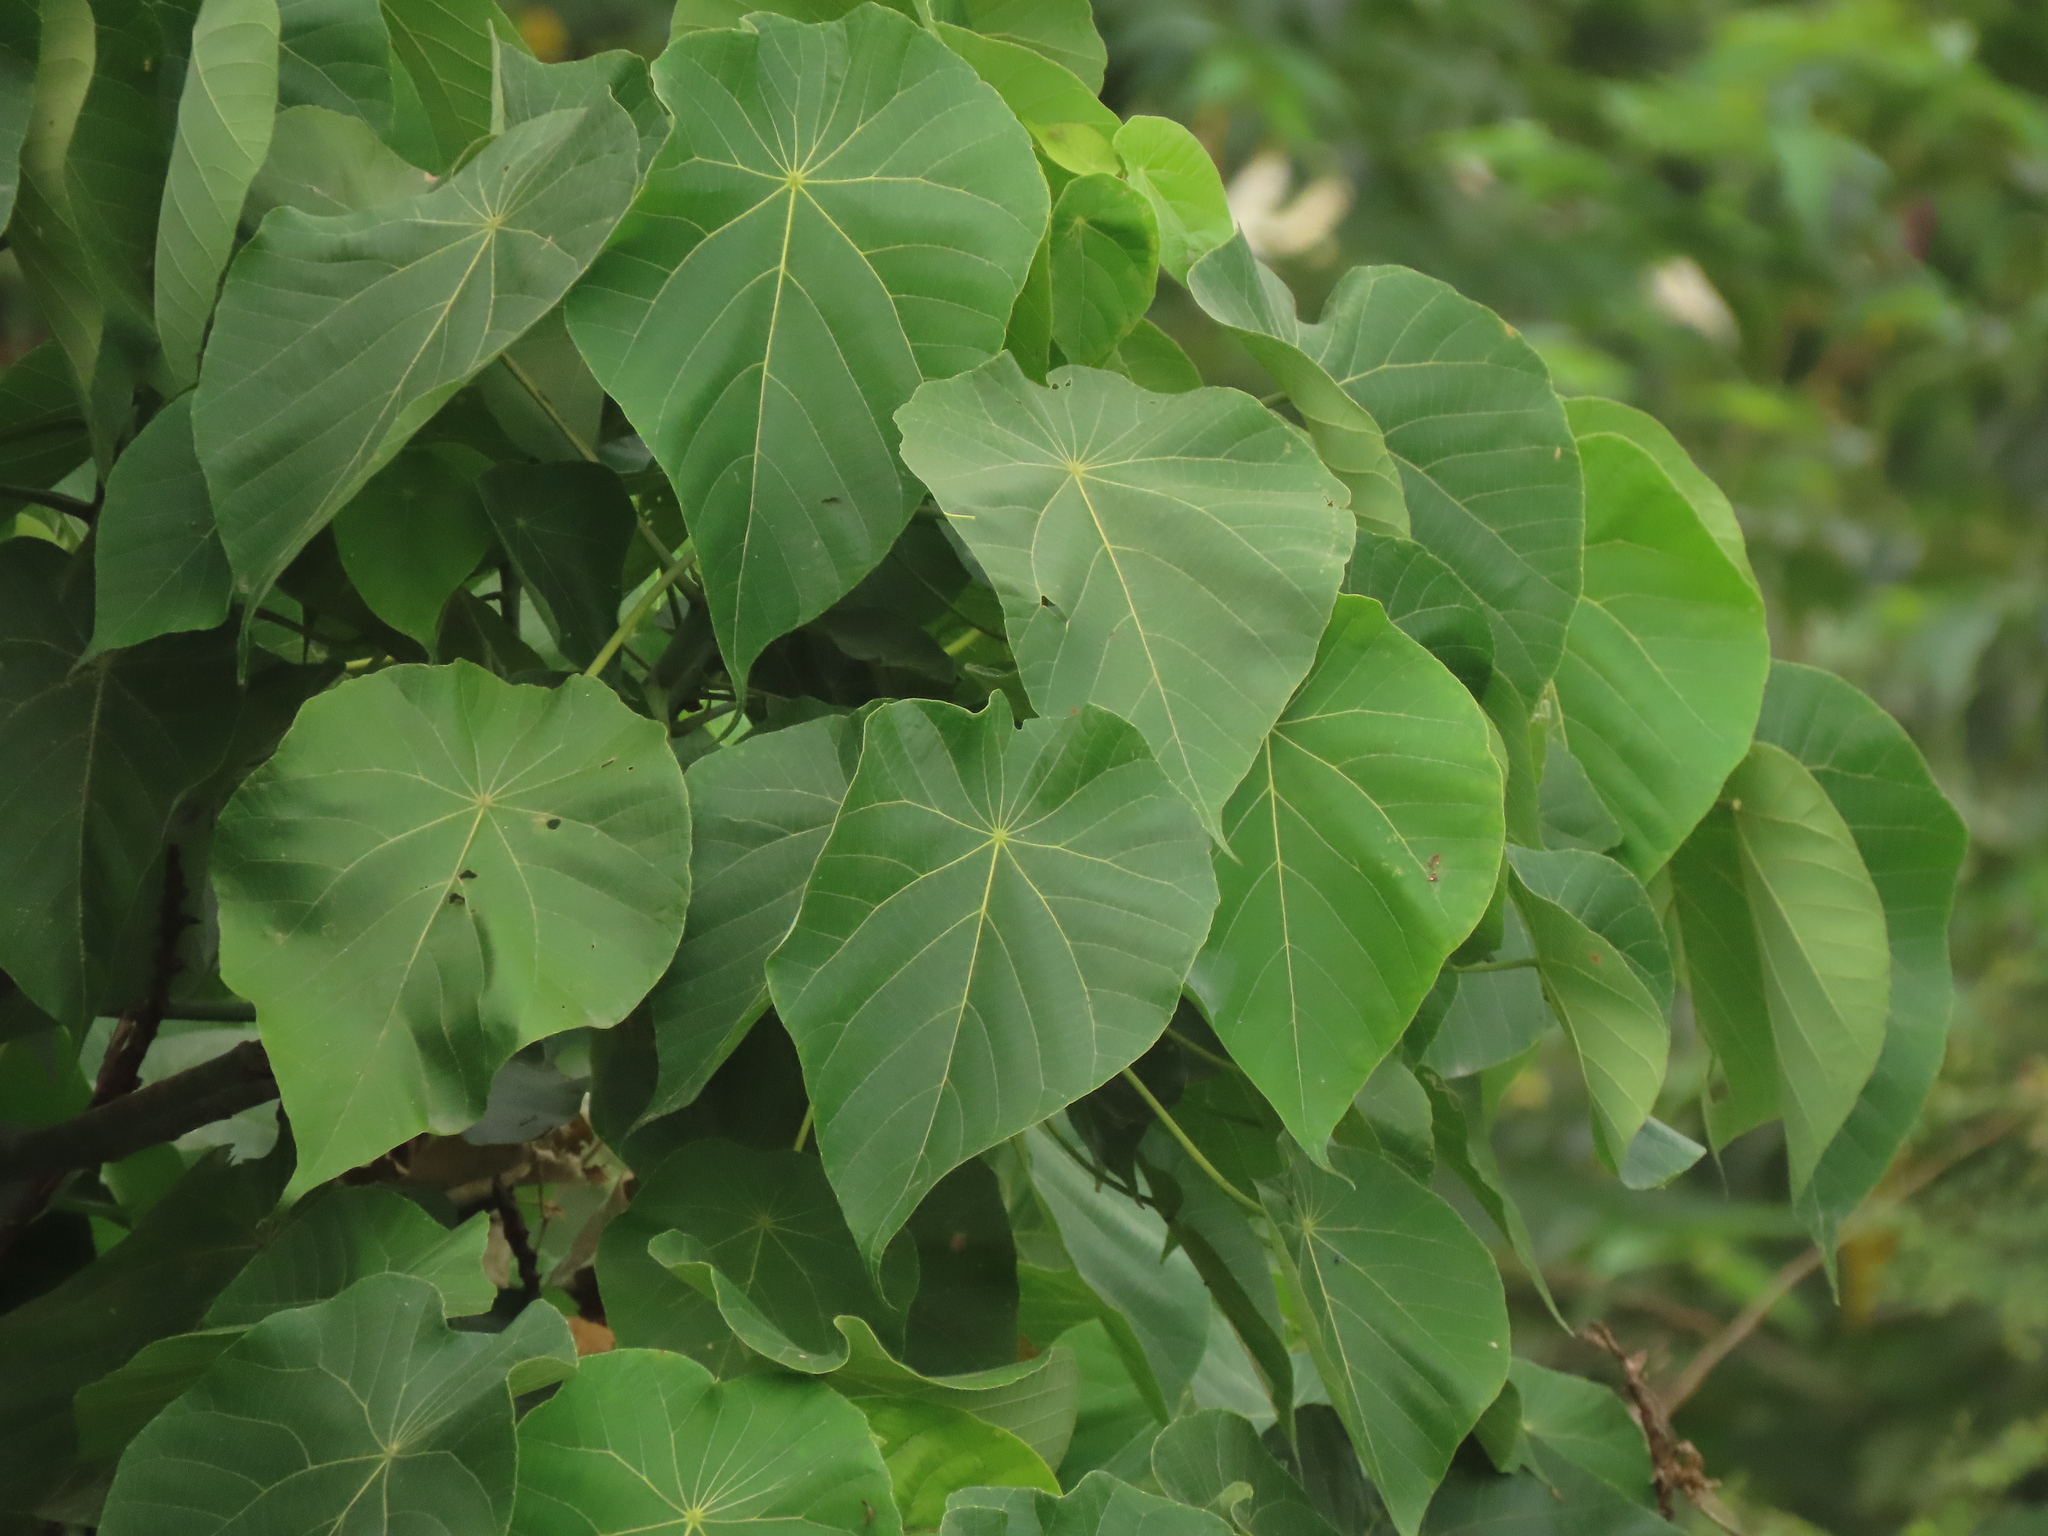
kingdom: Plantae
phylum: Tracheophyta
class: Magnoliopsida
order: Malpighiales
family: Euphorbiaceae
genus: Macaranga
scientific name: Macaranga tanarius
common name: Parasol leaf tree
